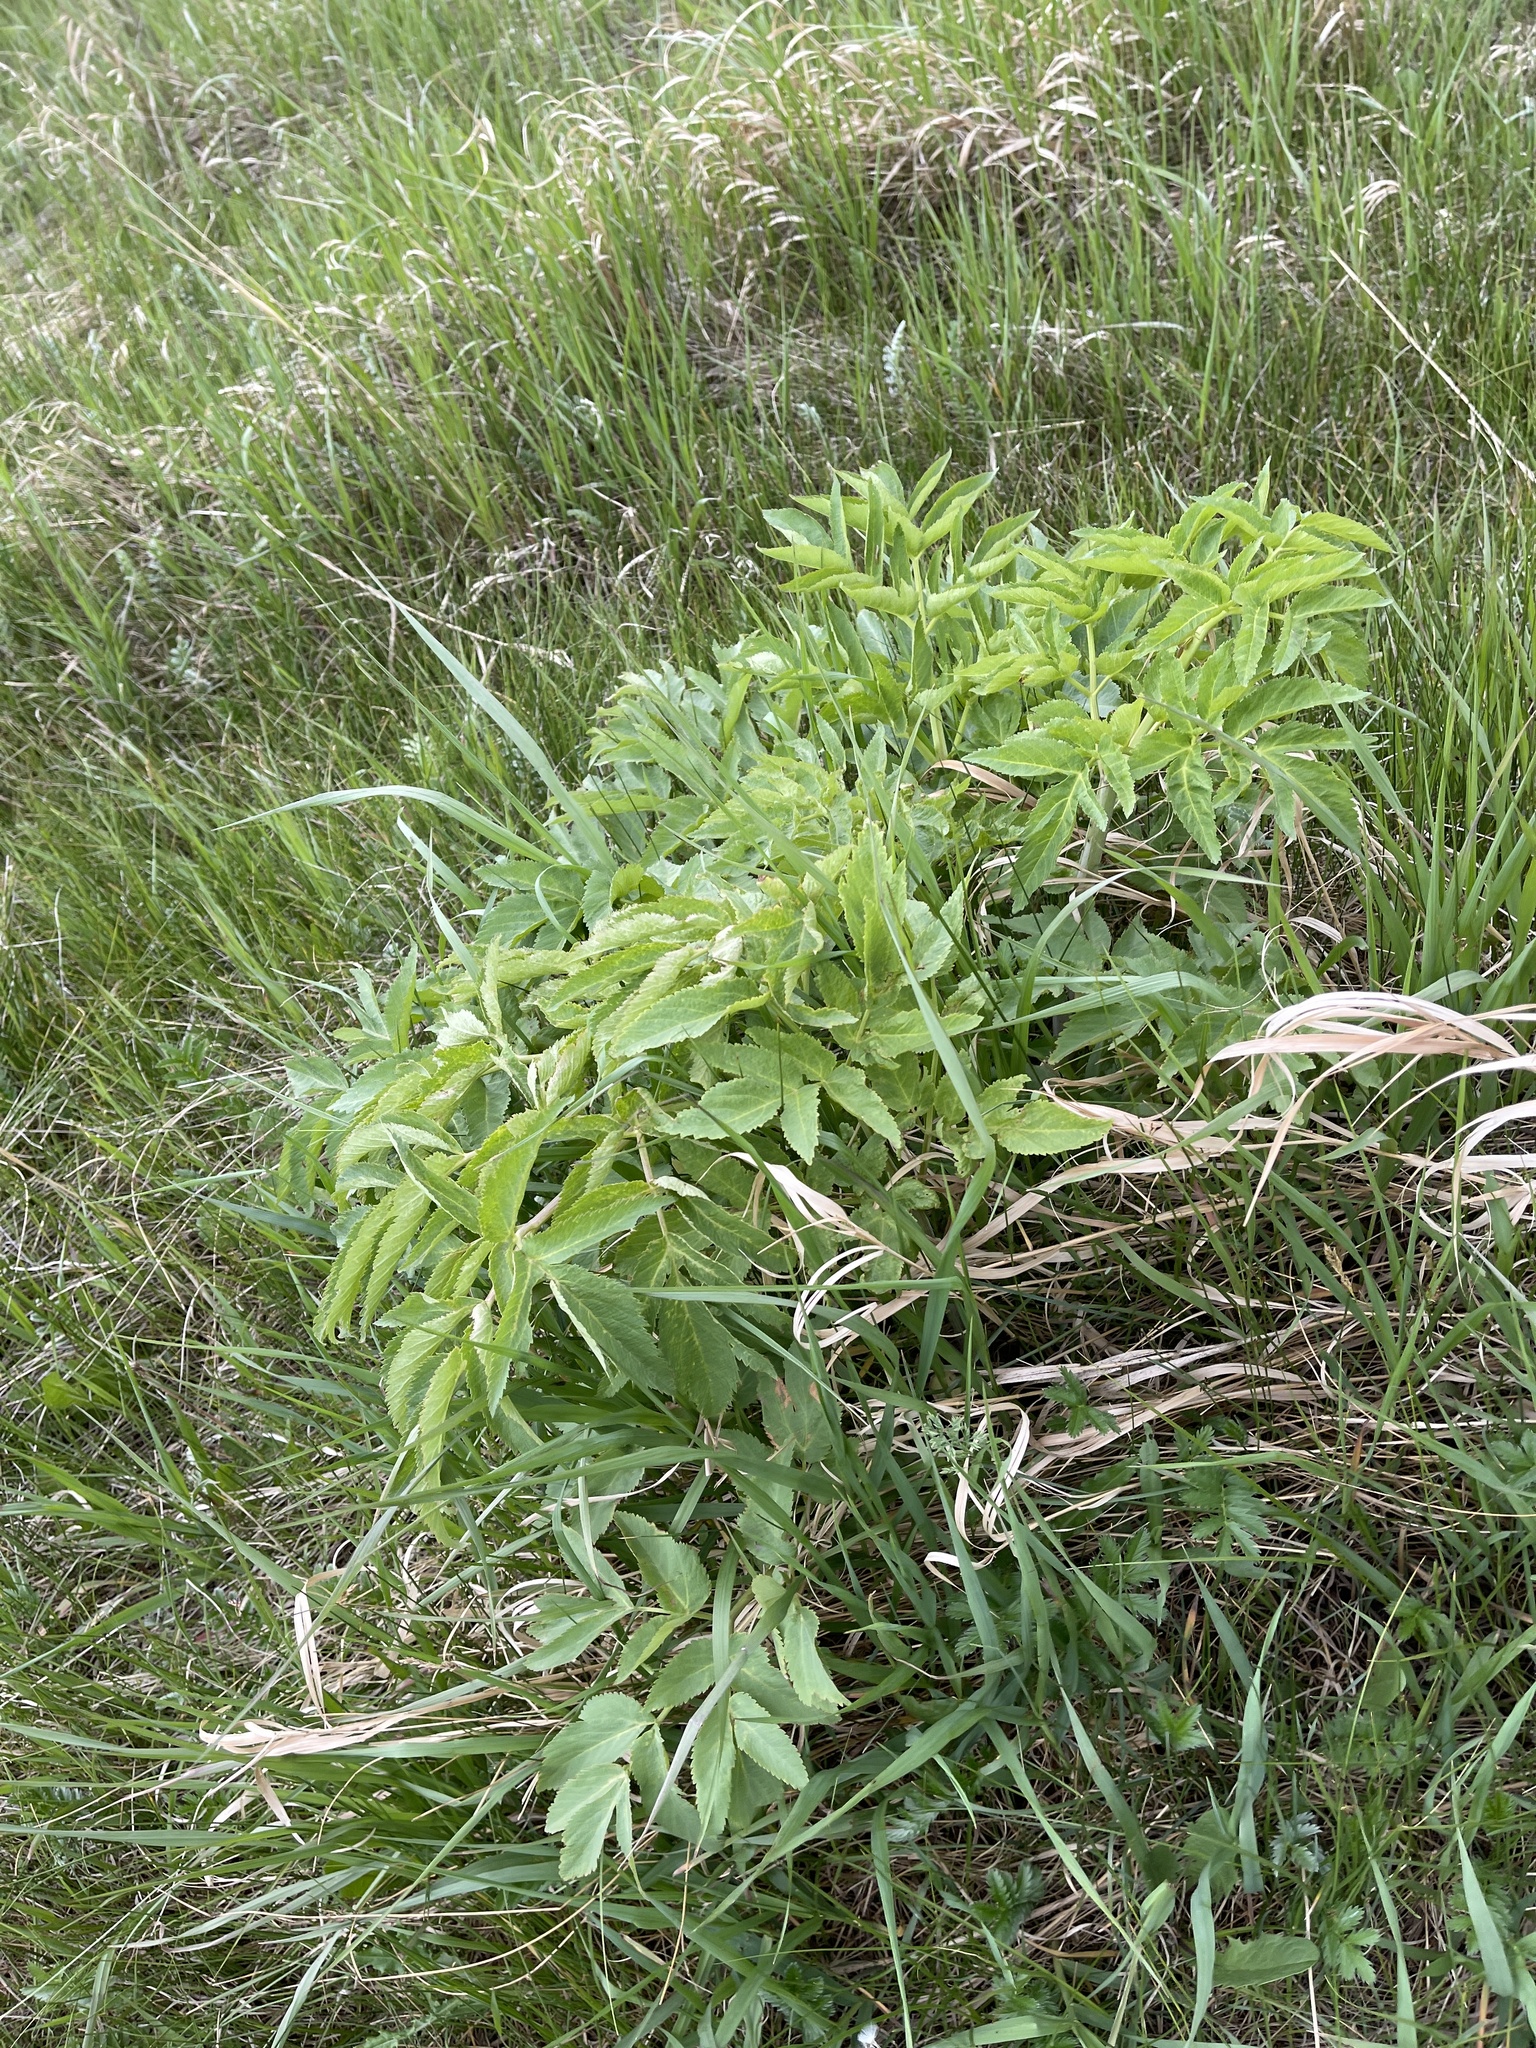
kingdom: Plantae
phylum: Tracheophyta
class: Magnoliopsida
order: Apiales
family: Apiaceae
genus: Angelica
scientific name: Angelica ampla
